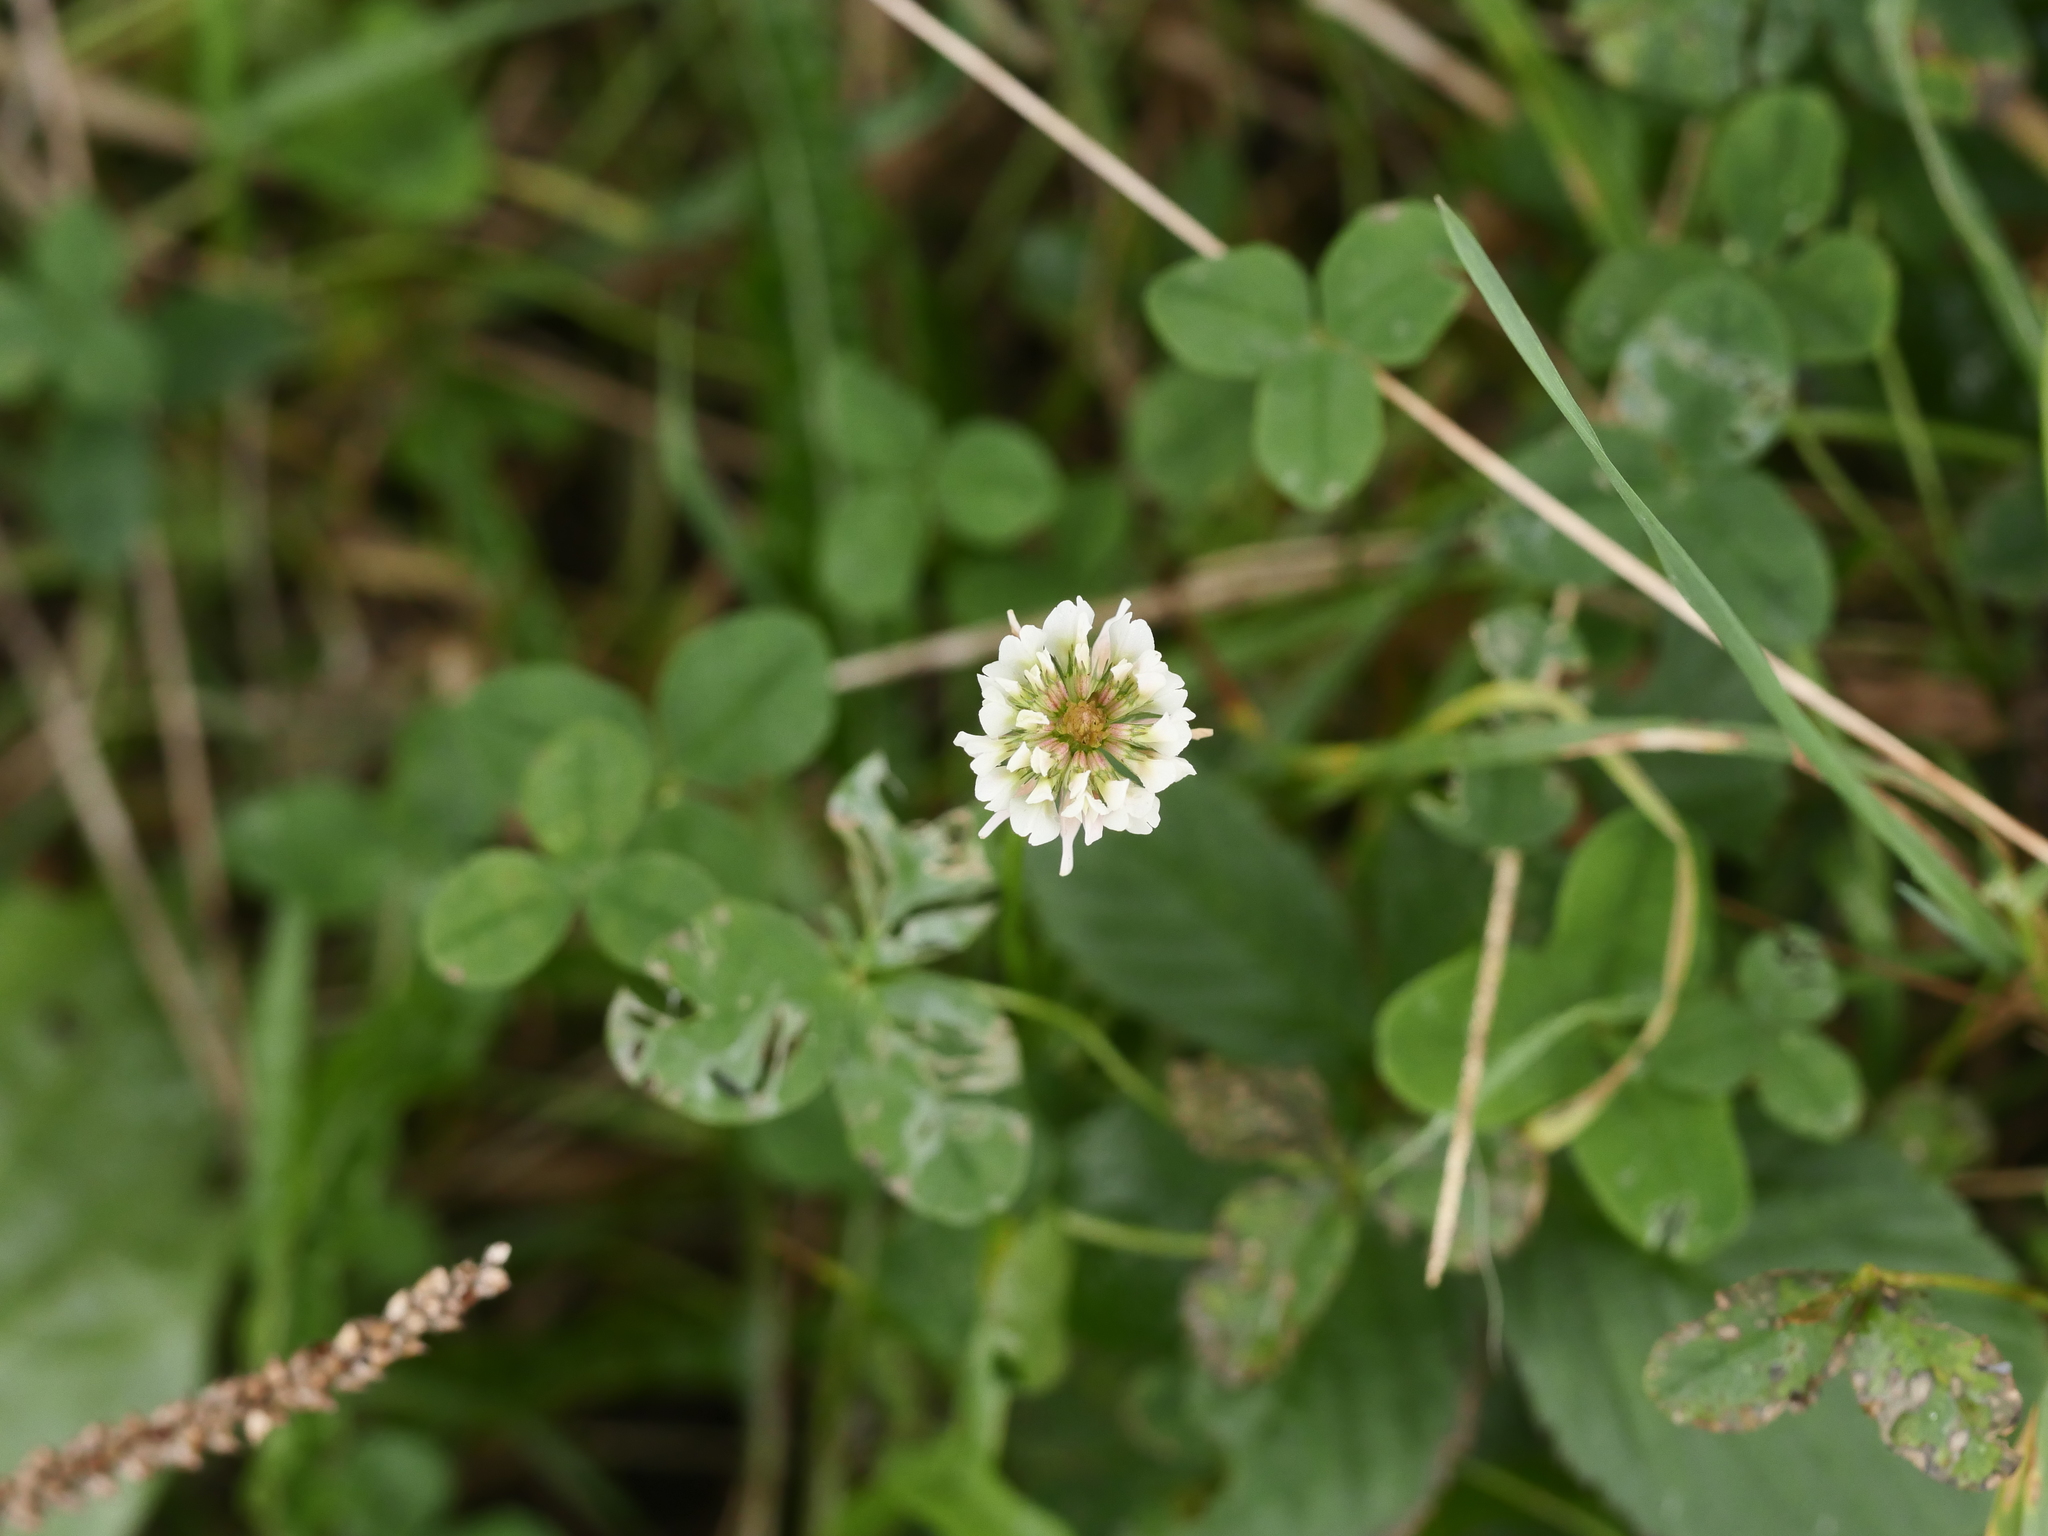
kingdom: Plantae
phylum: Tracheophyta
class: Magnoliopsida
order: Fabales
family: Fabaceae
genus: Trifolium
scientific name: Trifolium repens
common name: White clover
